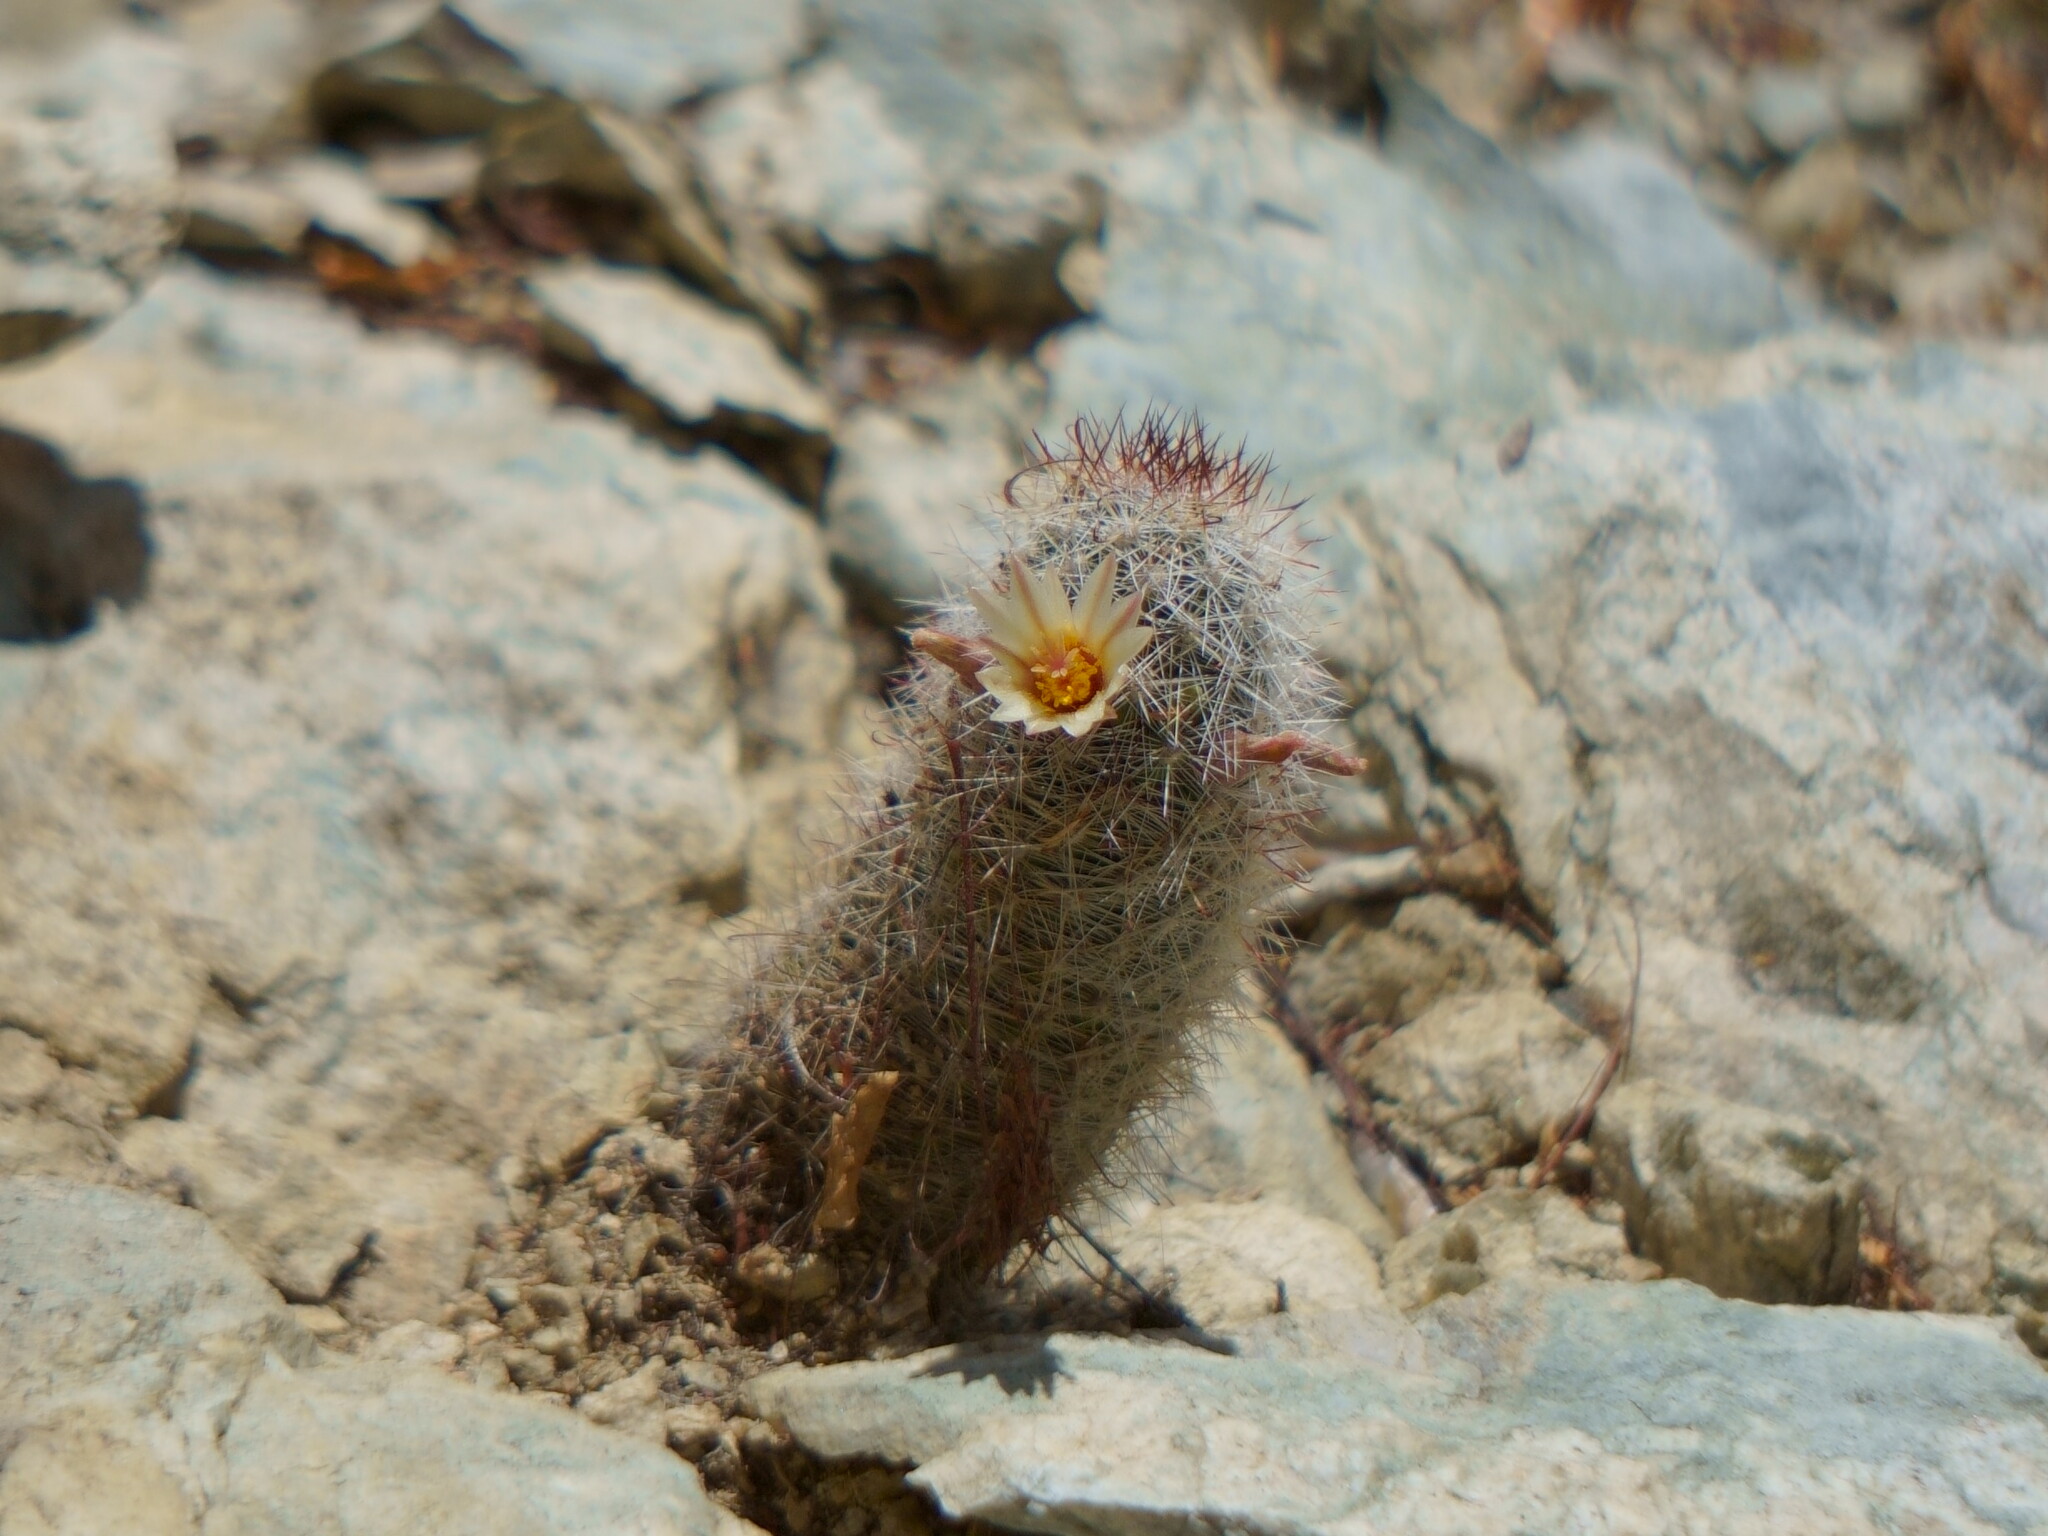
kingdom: Plantae
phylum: Tracheophyta
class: Magnoliopsida
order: Caryophyllales
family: Cactaceae
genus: Cochemiea
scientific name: Cochemiea armillata
